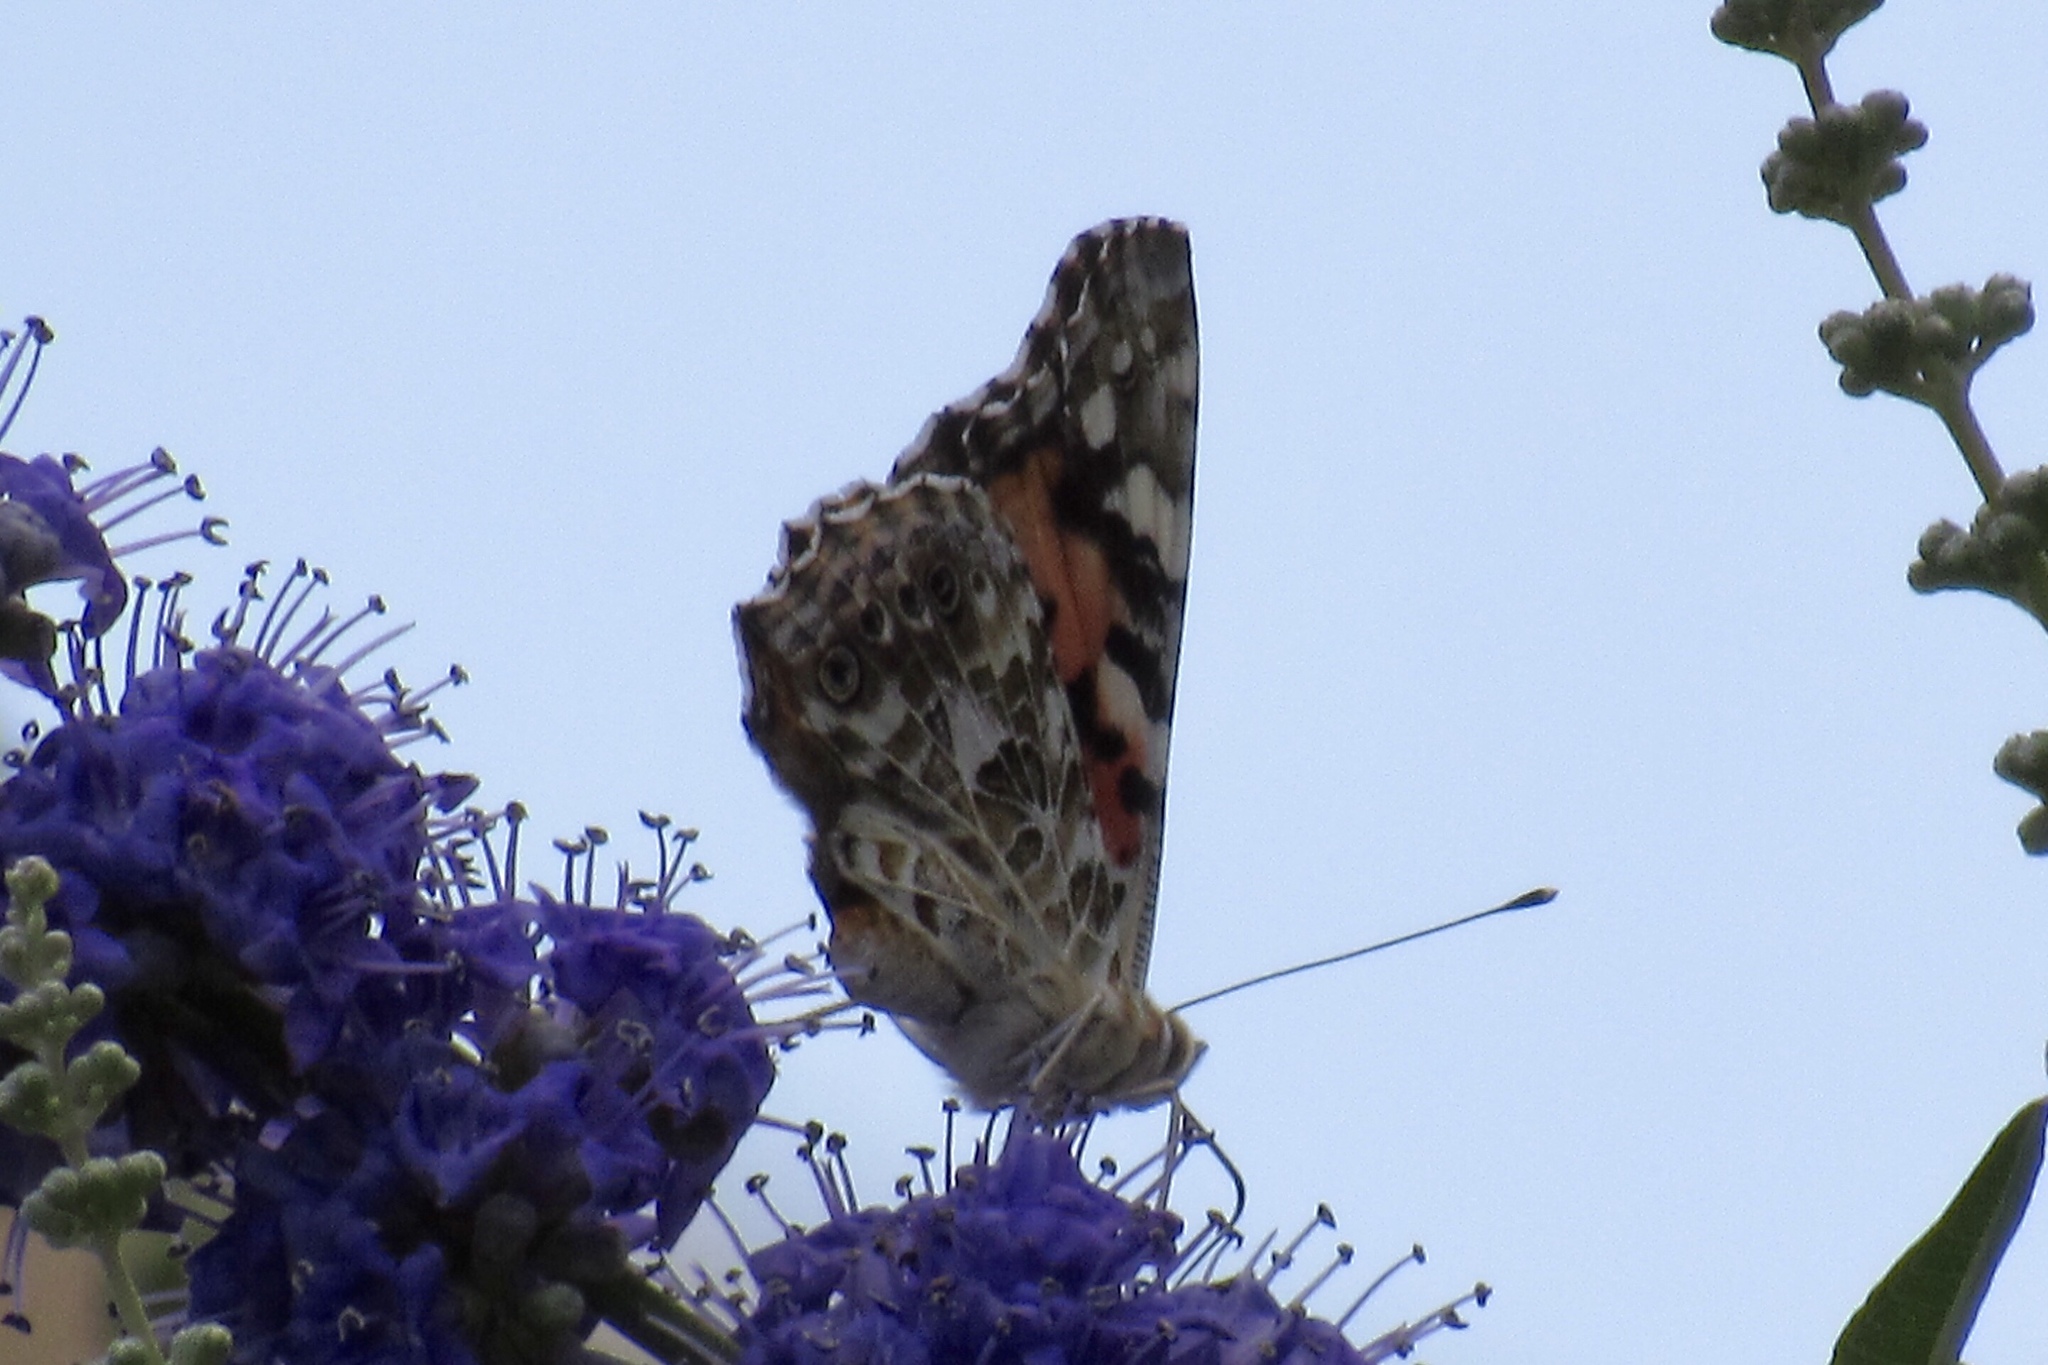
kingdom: Animalia
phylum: Arthropoda
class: Insecta
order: Lepidoptera
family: Nymphalidae
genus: Vanessa
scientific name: Vanessa cardui
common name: Painted lady
